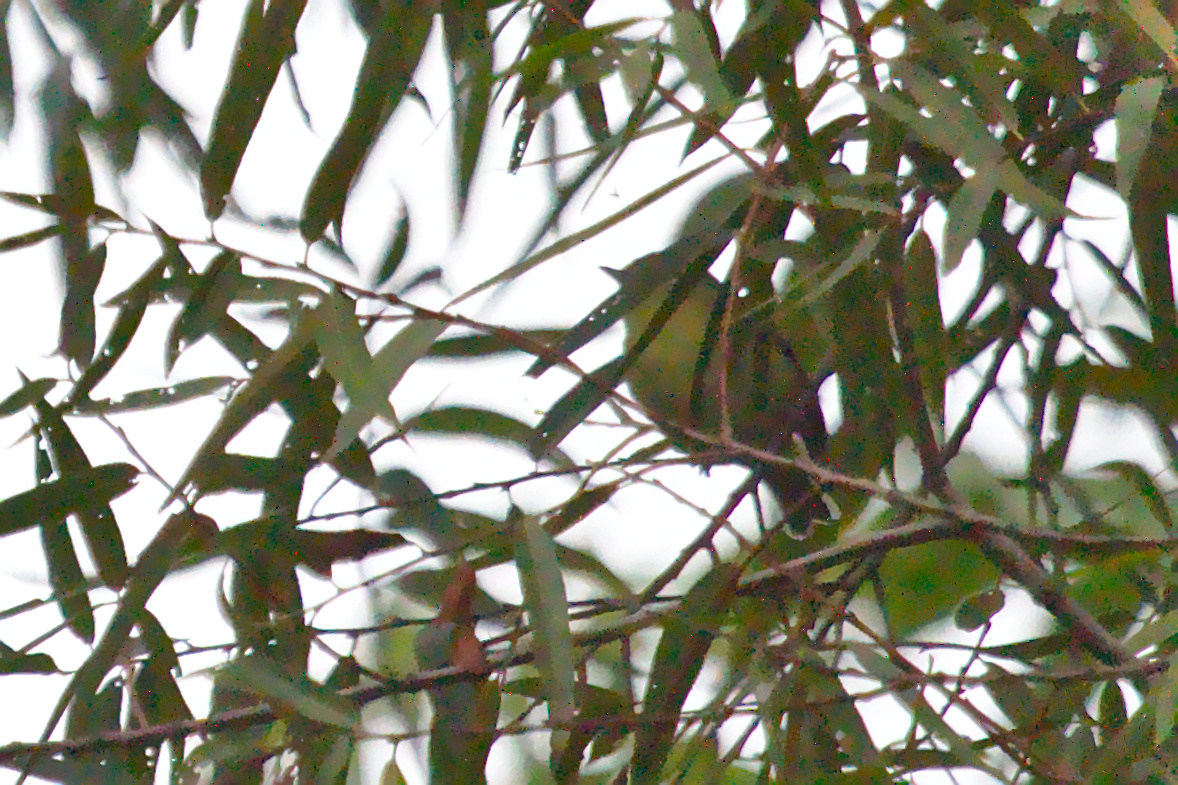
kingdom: Animalia
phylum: Chordata
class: Aves
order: Passeriformes
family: Vireonidae
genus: Vireo
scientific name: Vireo philadelphicus
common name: Philadelphia vireo
